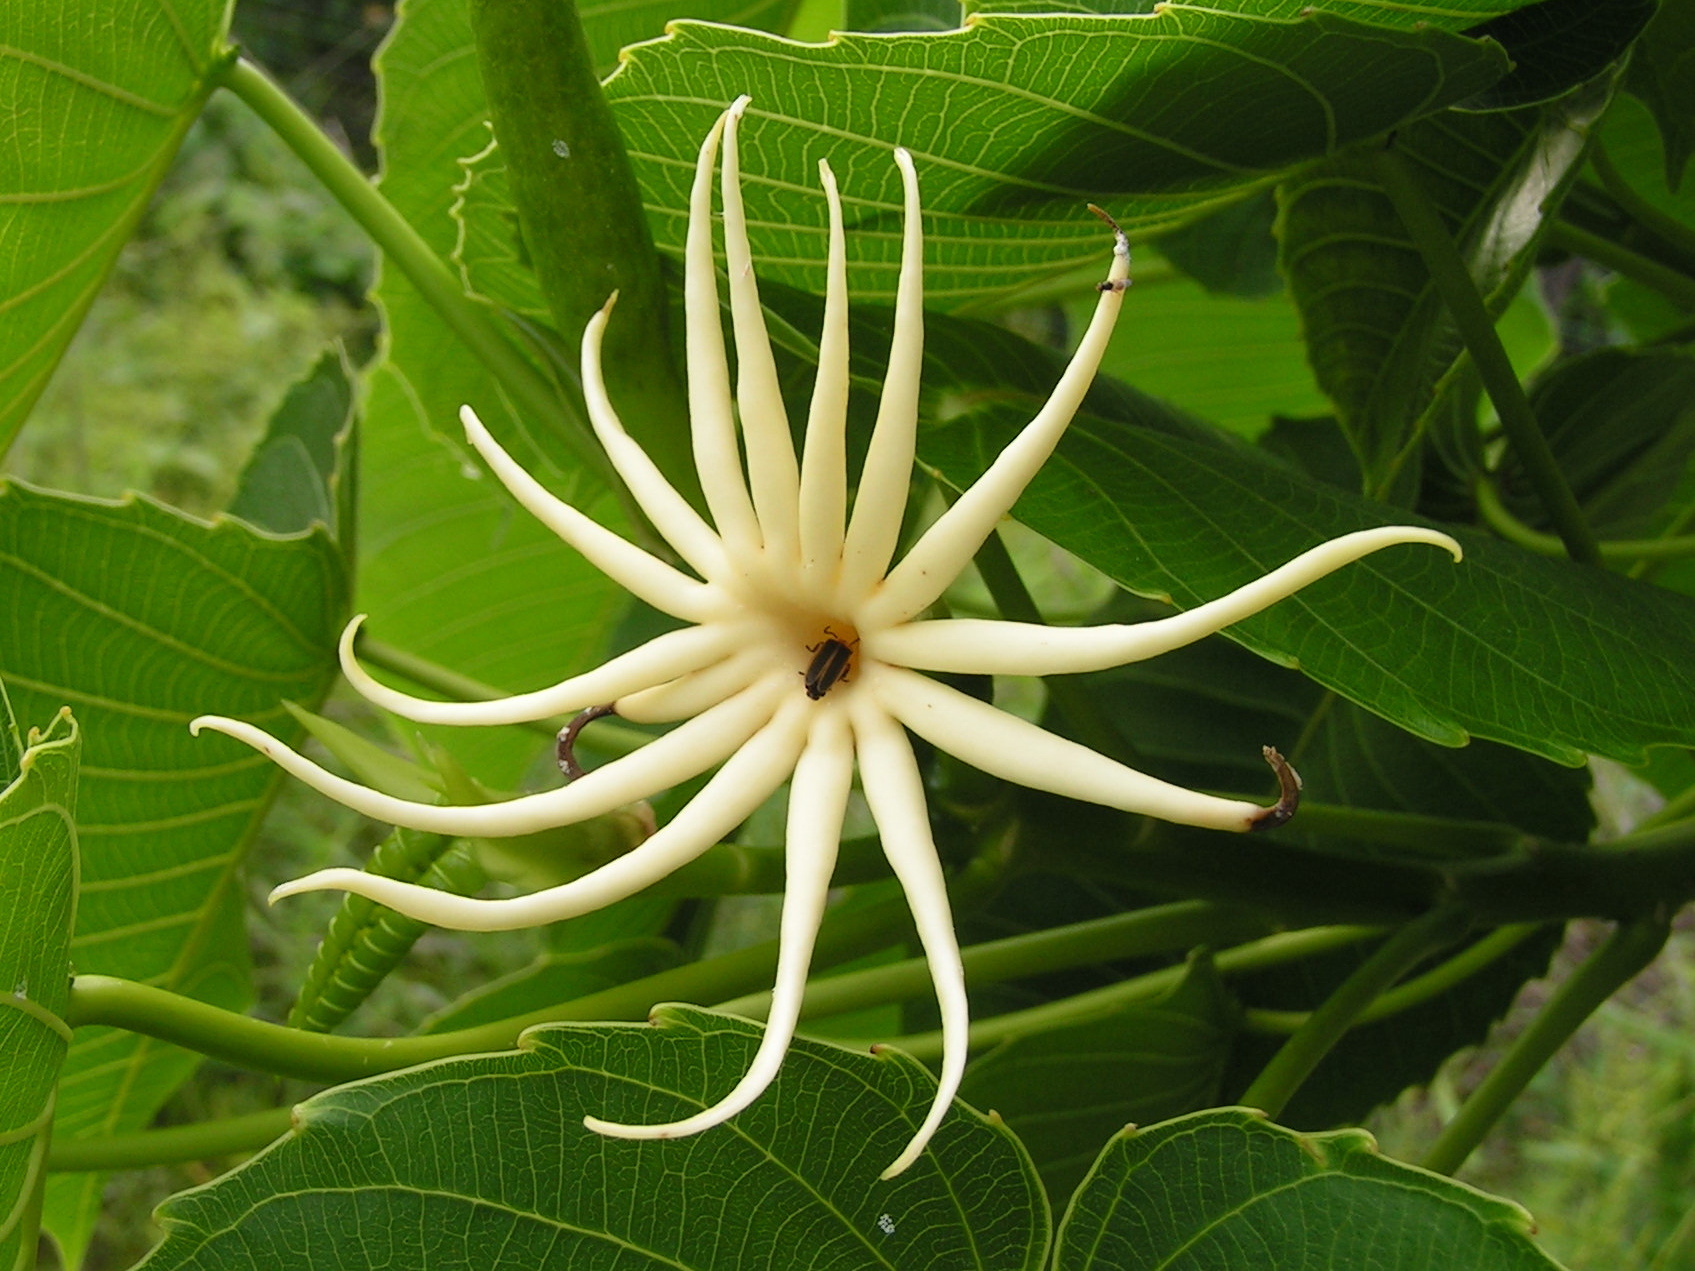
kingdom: Plantae
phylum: Tracheophyta
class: Magnoliopsida
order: Malpighiales
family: Euphorbiaceae
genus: Hura
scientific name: Hura polyandra
